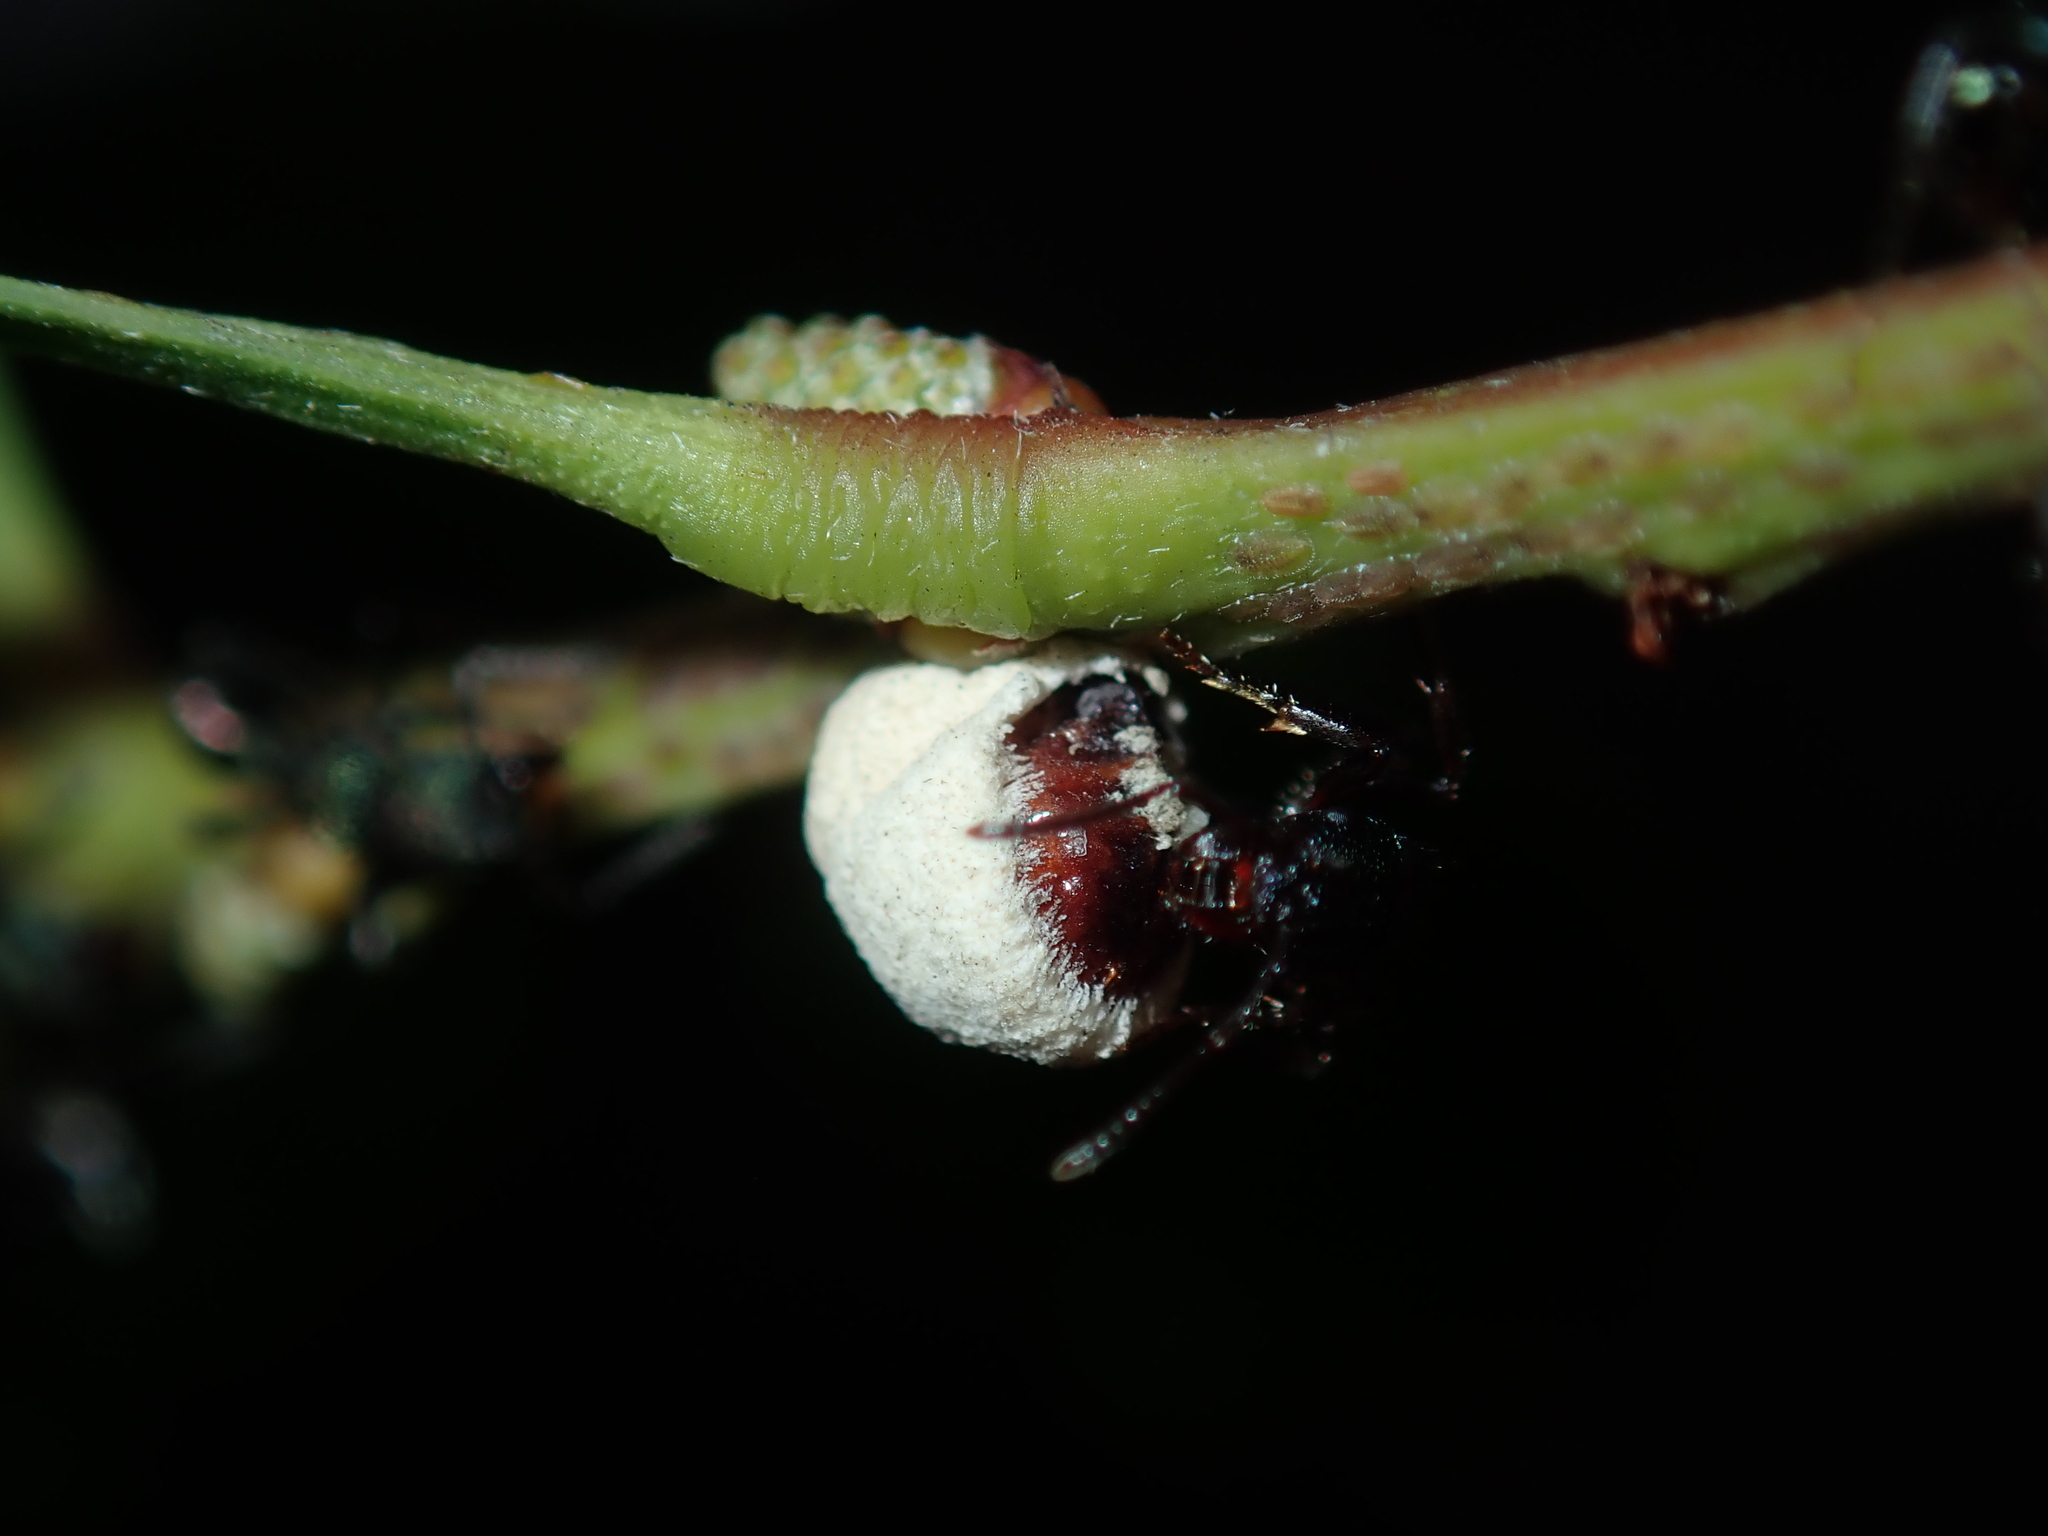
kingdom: Animalia
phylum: Arthropoda
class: Insecta
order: Hemiptera
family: Coccidae
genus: Cryptes
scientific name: Cryptes baccatus
